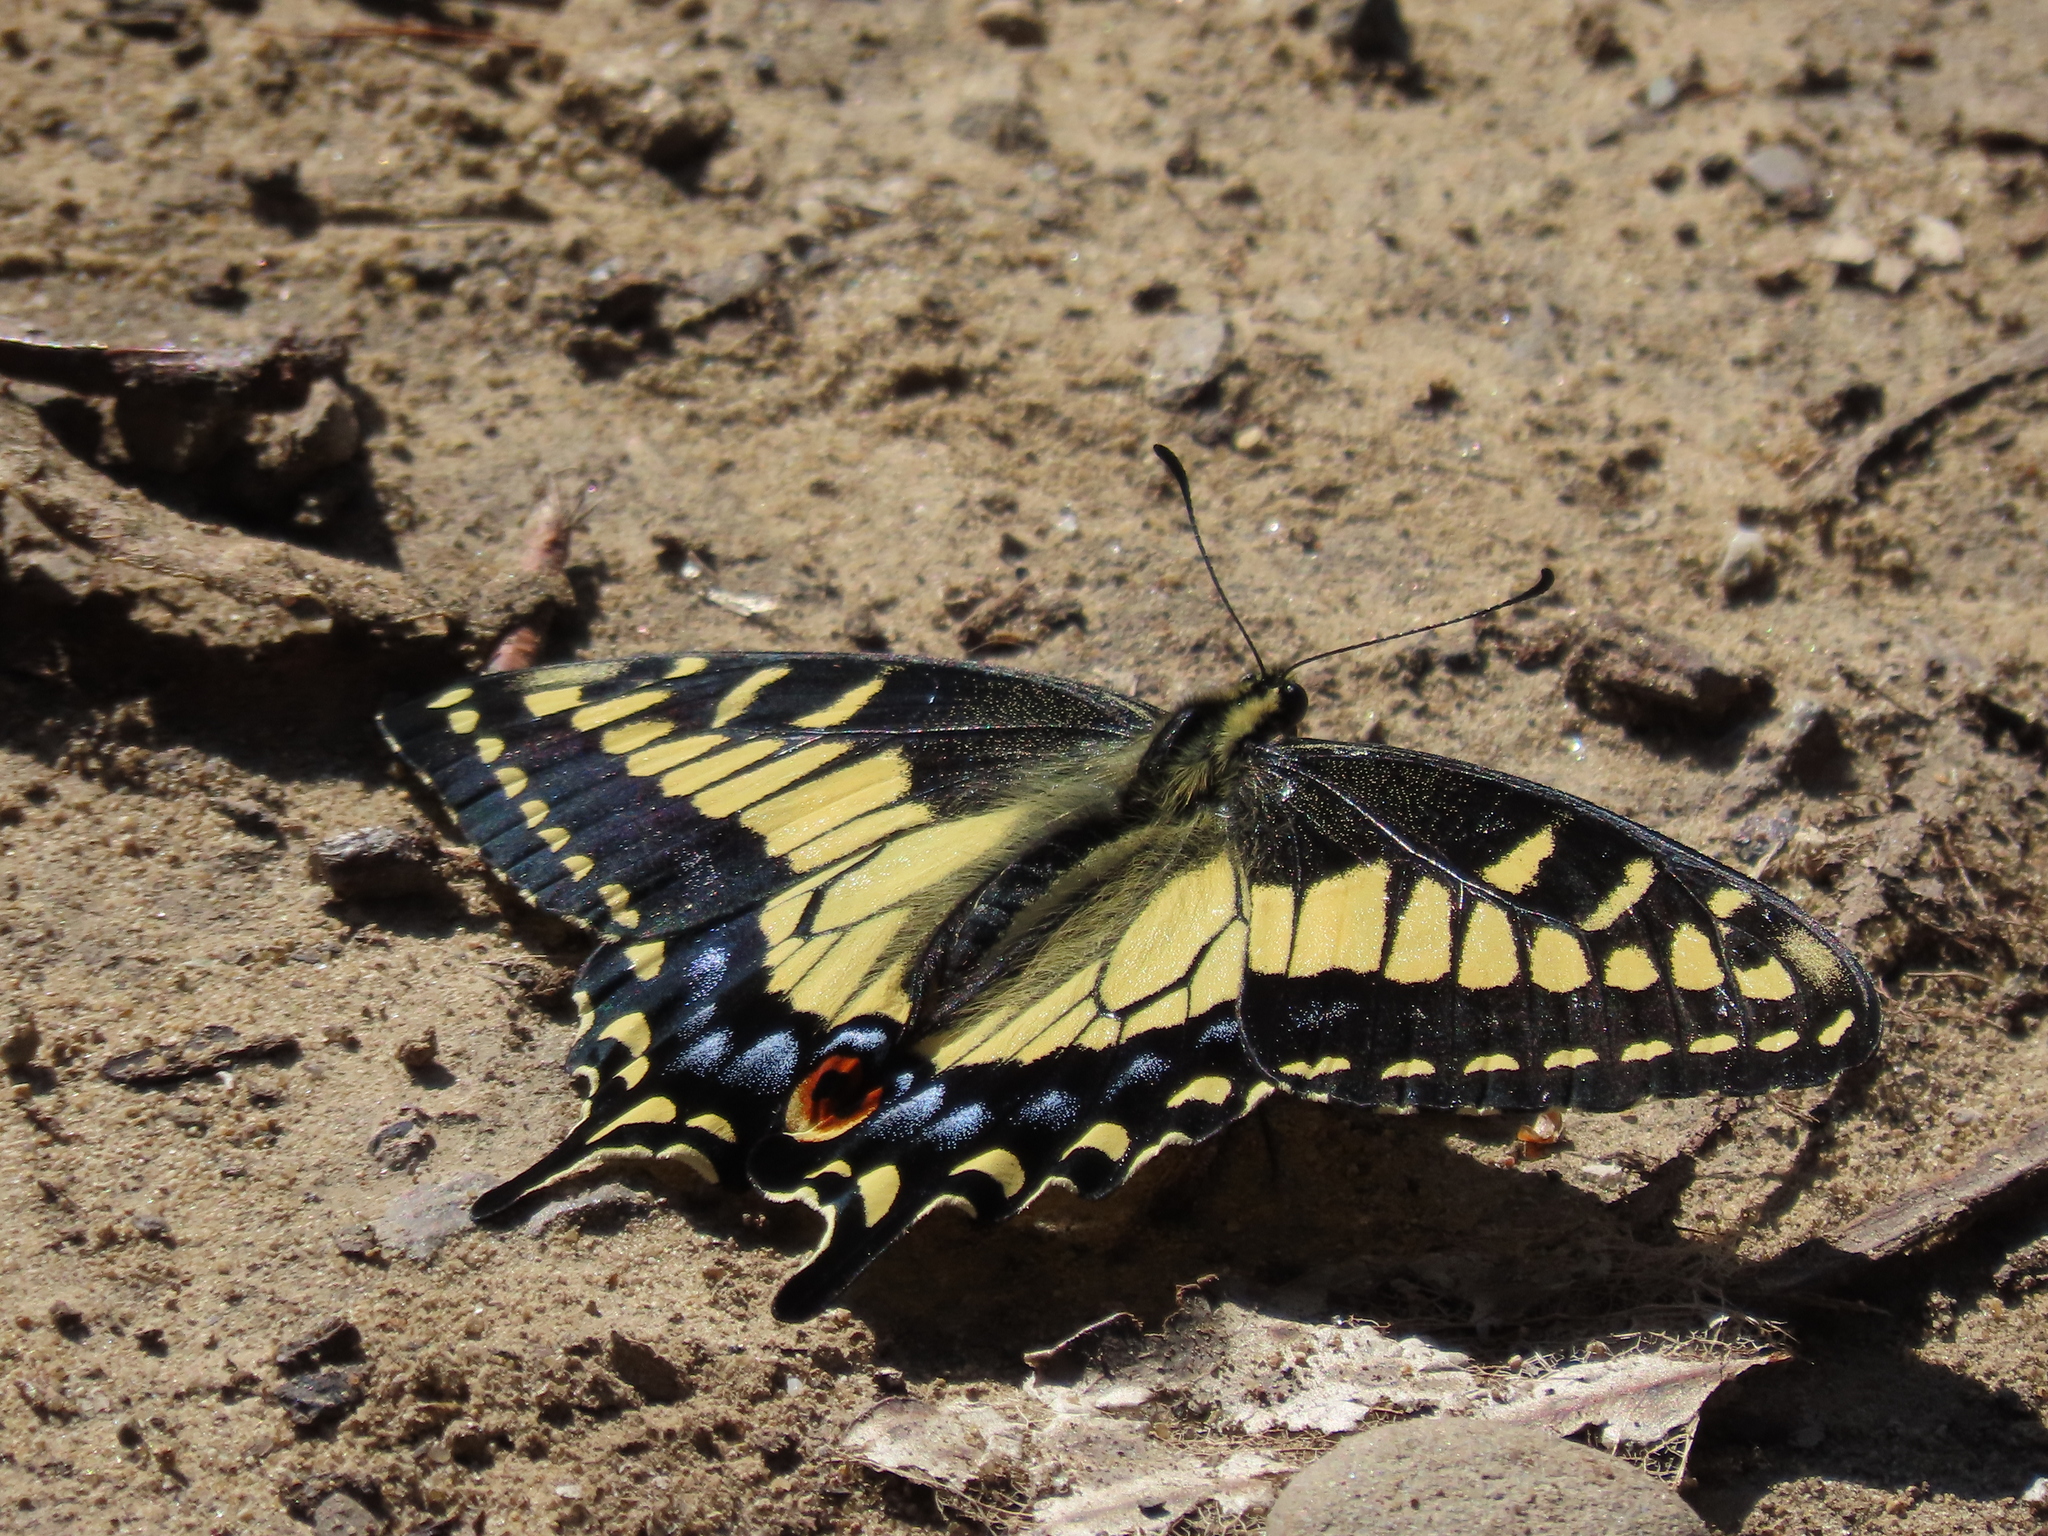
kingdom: Animalia
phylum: Arthropoda
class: Insecta
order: Lepidoptera
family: Papilionidae
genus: Papilio
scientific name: Papilio zelicaon
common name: Anise swallowtail
